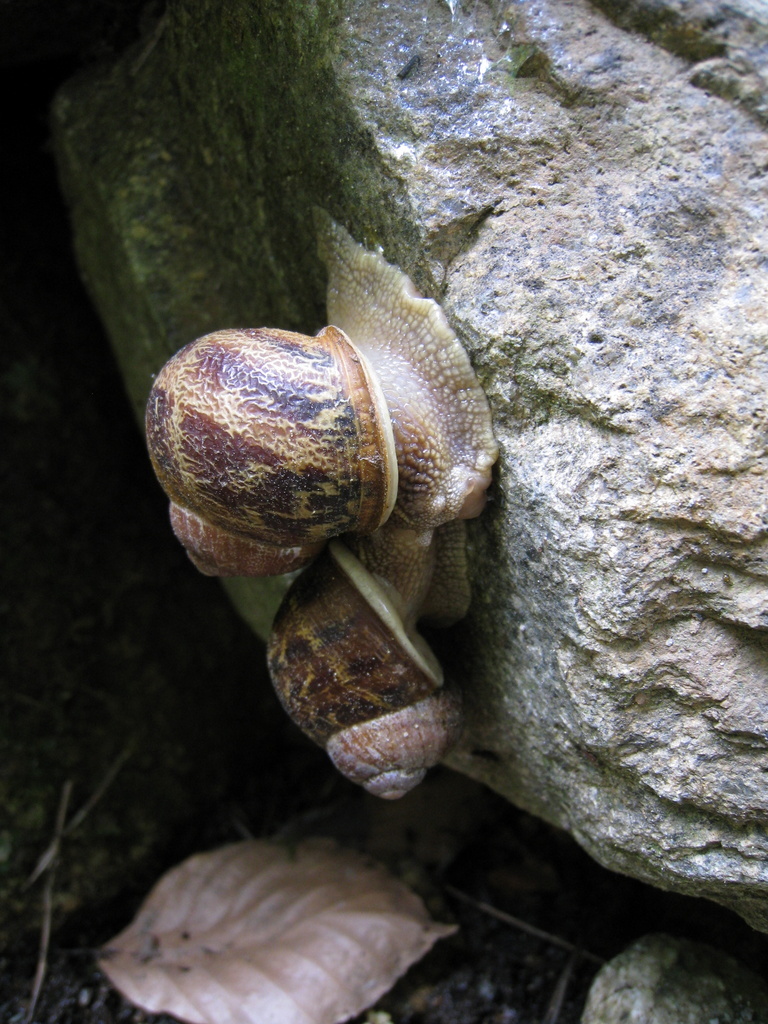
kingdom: Animalia
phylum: Mollusca
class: Gastropoda
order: Stylommatophora
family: Helicidae
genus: Cornu
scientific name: Cornu aspersum
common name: Brown garden snail
